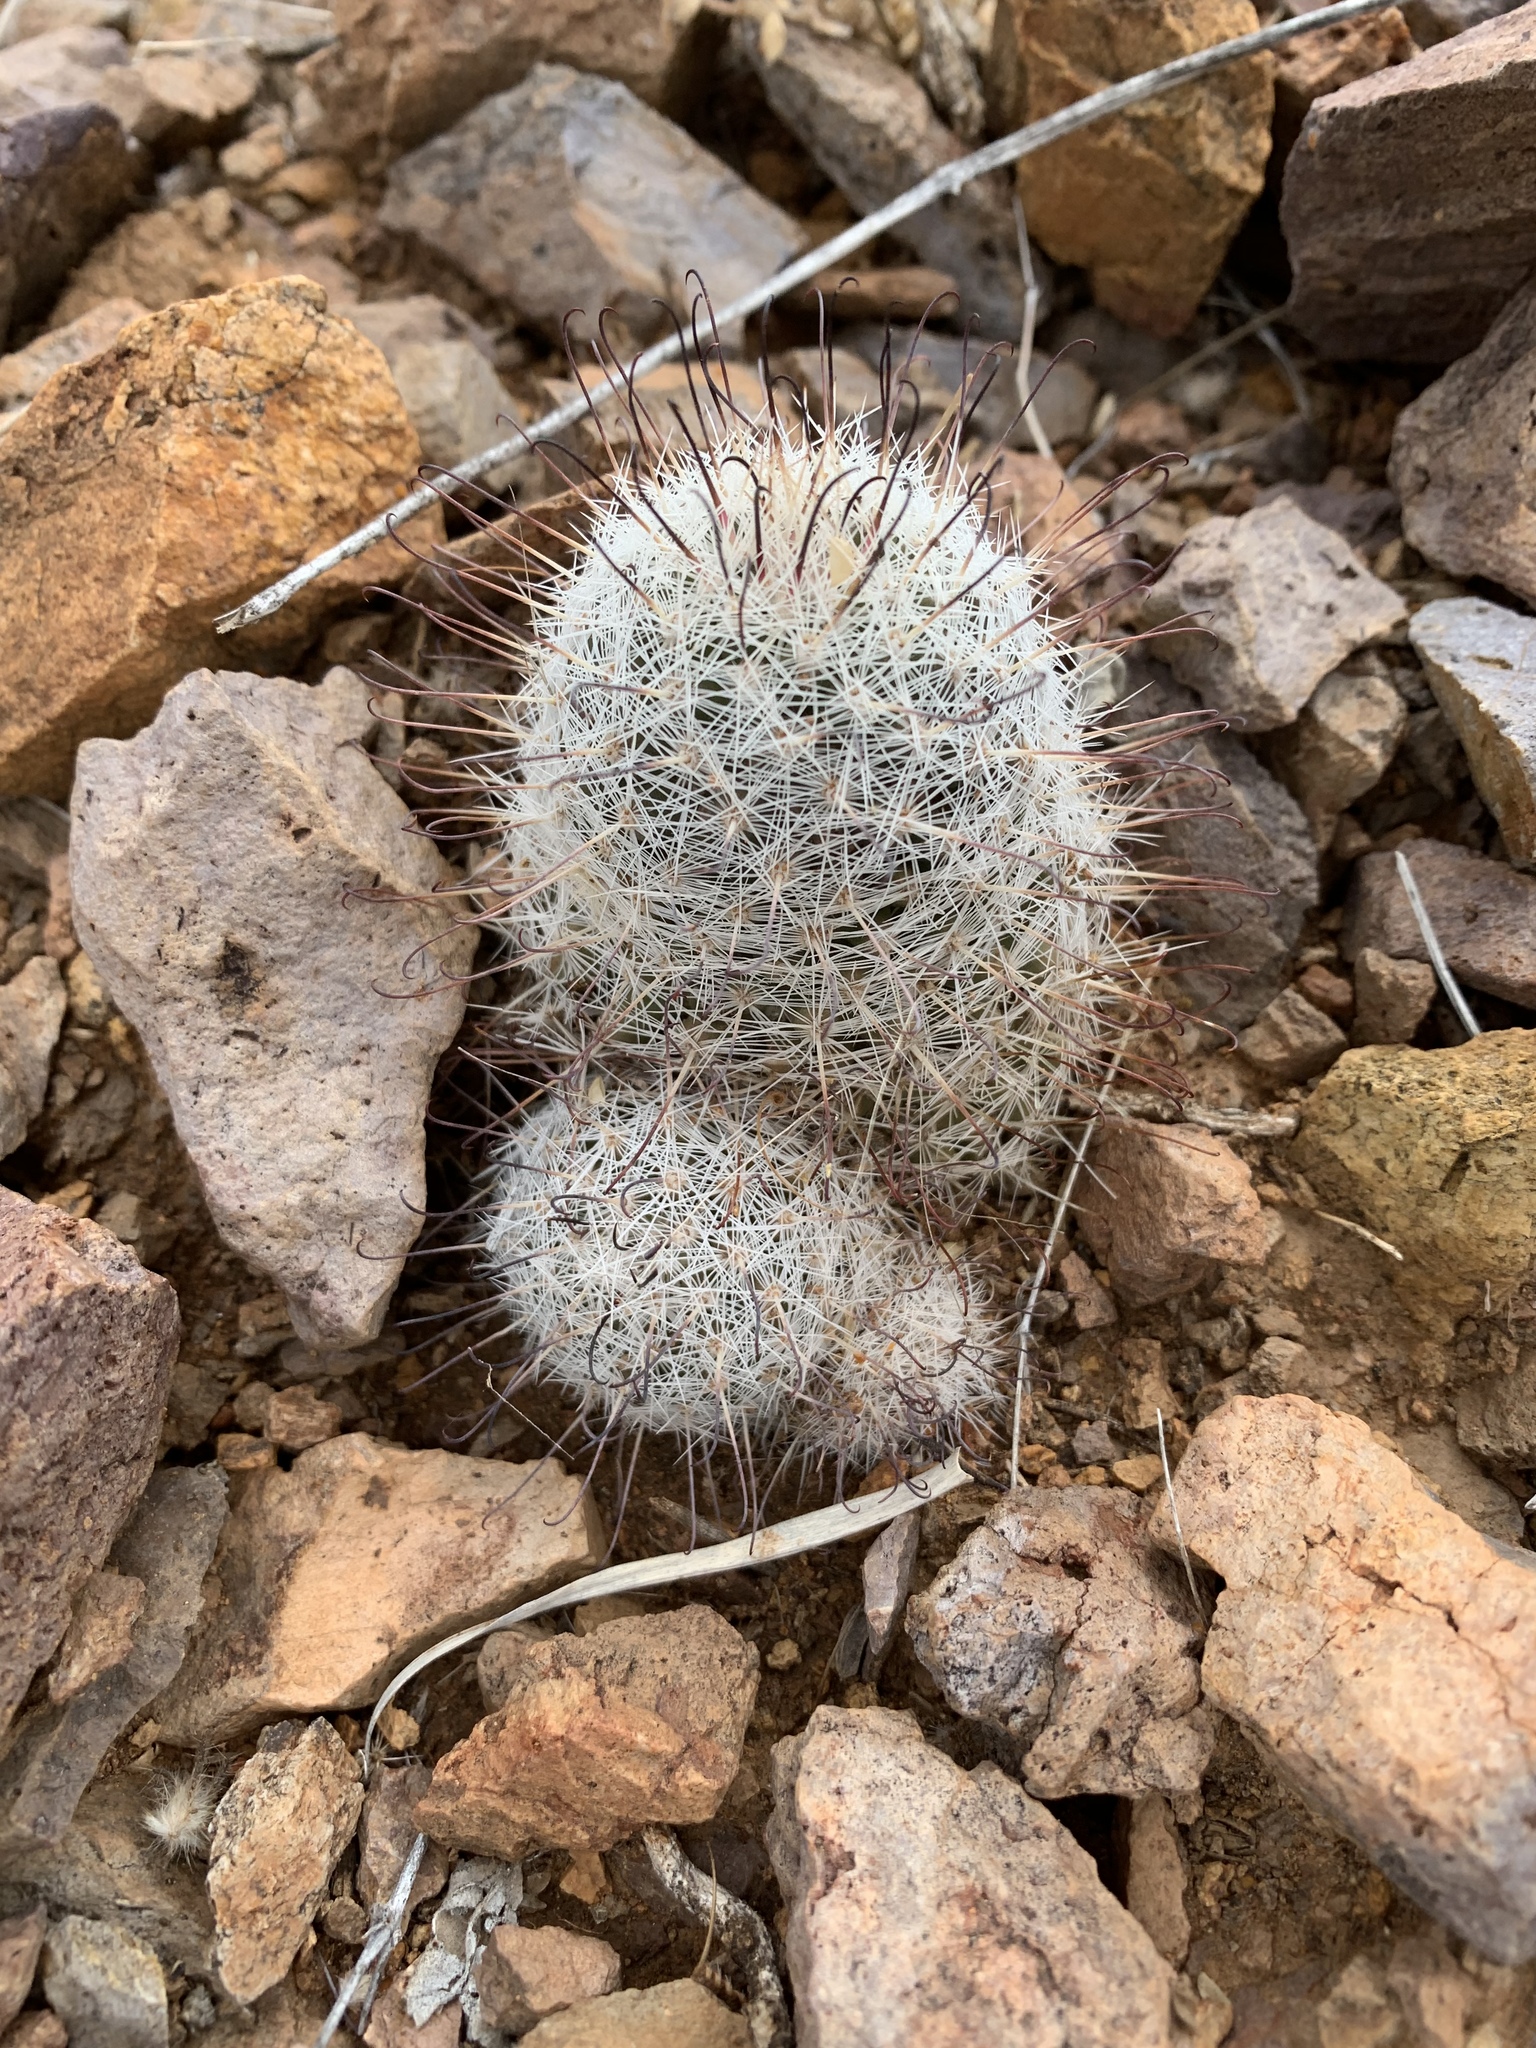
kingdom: Plantae
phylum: Tracheophyta
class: Magnoliopsida
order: Caryophyllales
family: Cactaceae
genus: Cochemiea
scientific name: Cochemiea grahamii
